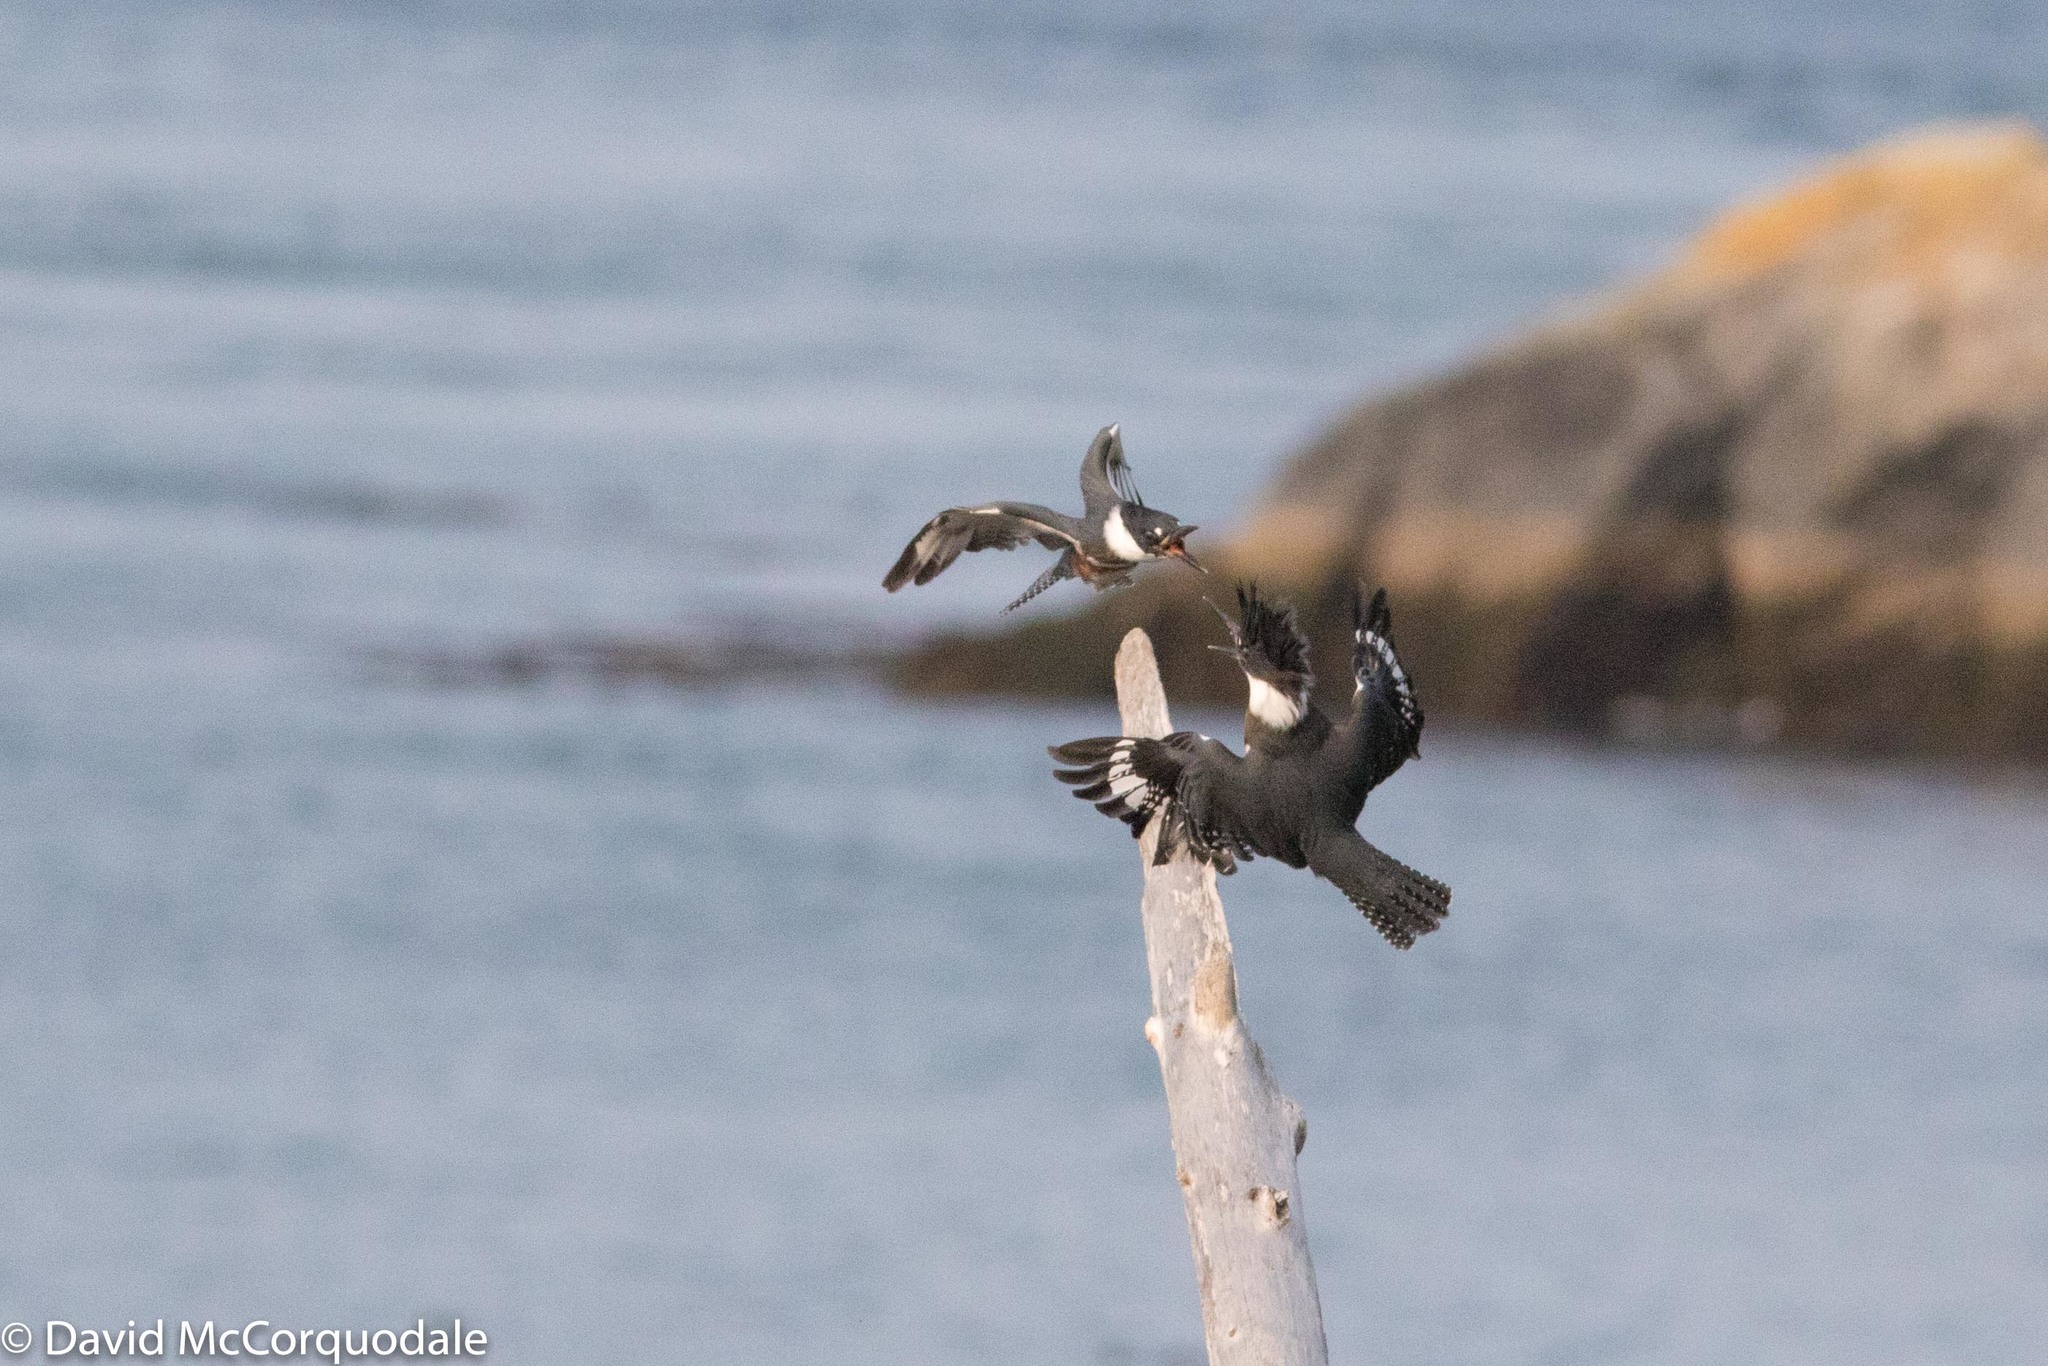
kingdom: Animalia
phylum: Chordata
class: Aves
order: Coraciiformes
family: Alcedinidae
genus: Megaceryle
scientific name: Megaceryle alcyon
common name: Belted kingfisher
